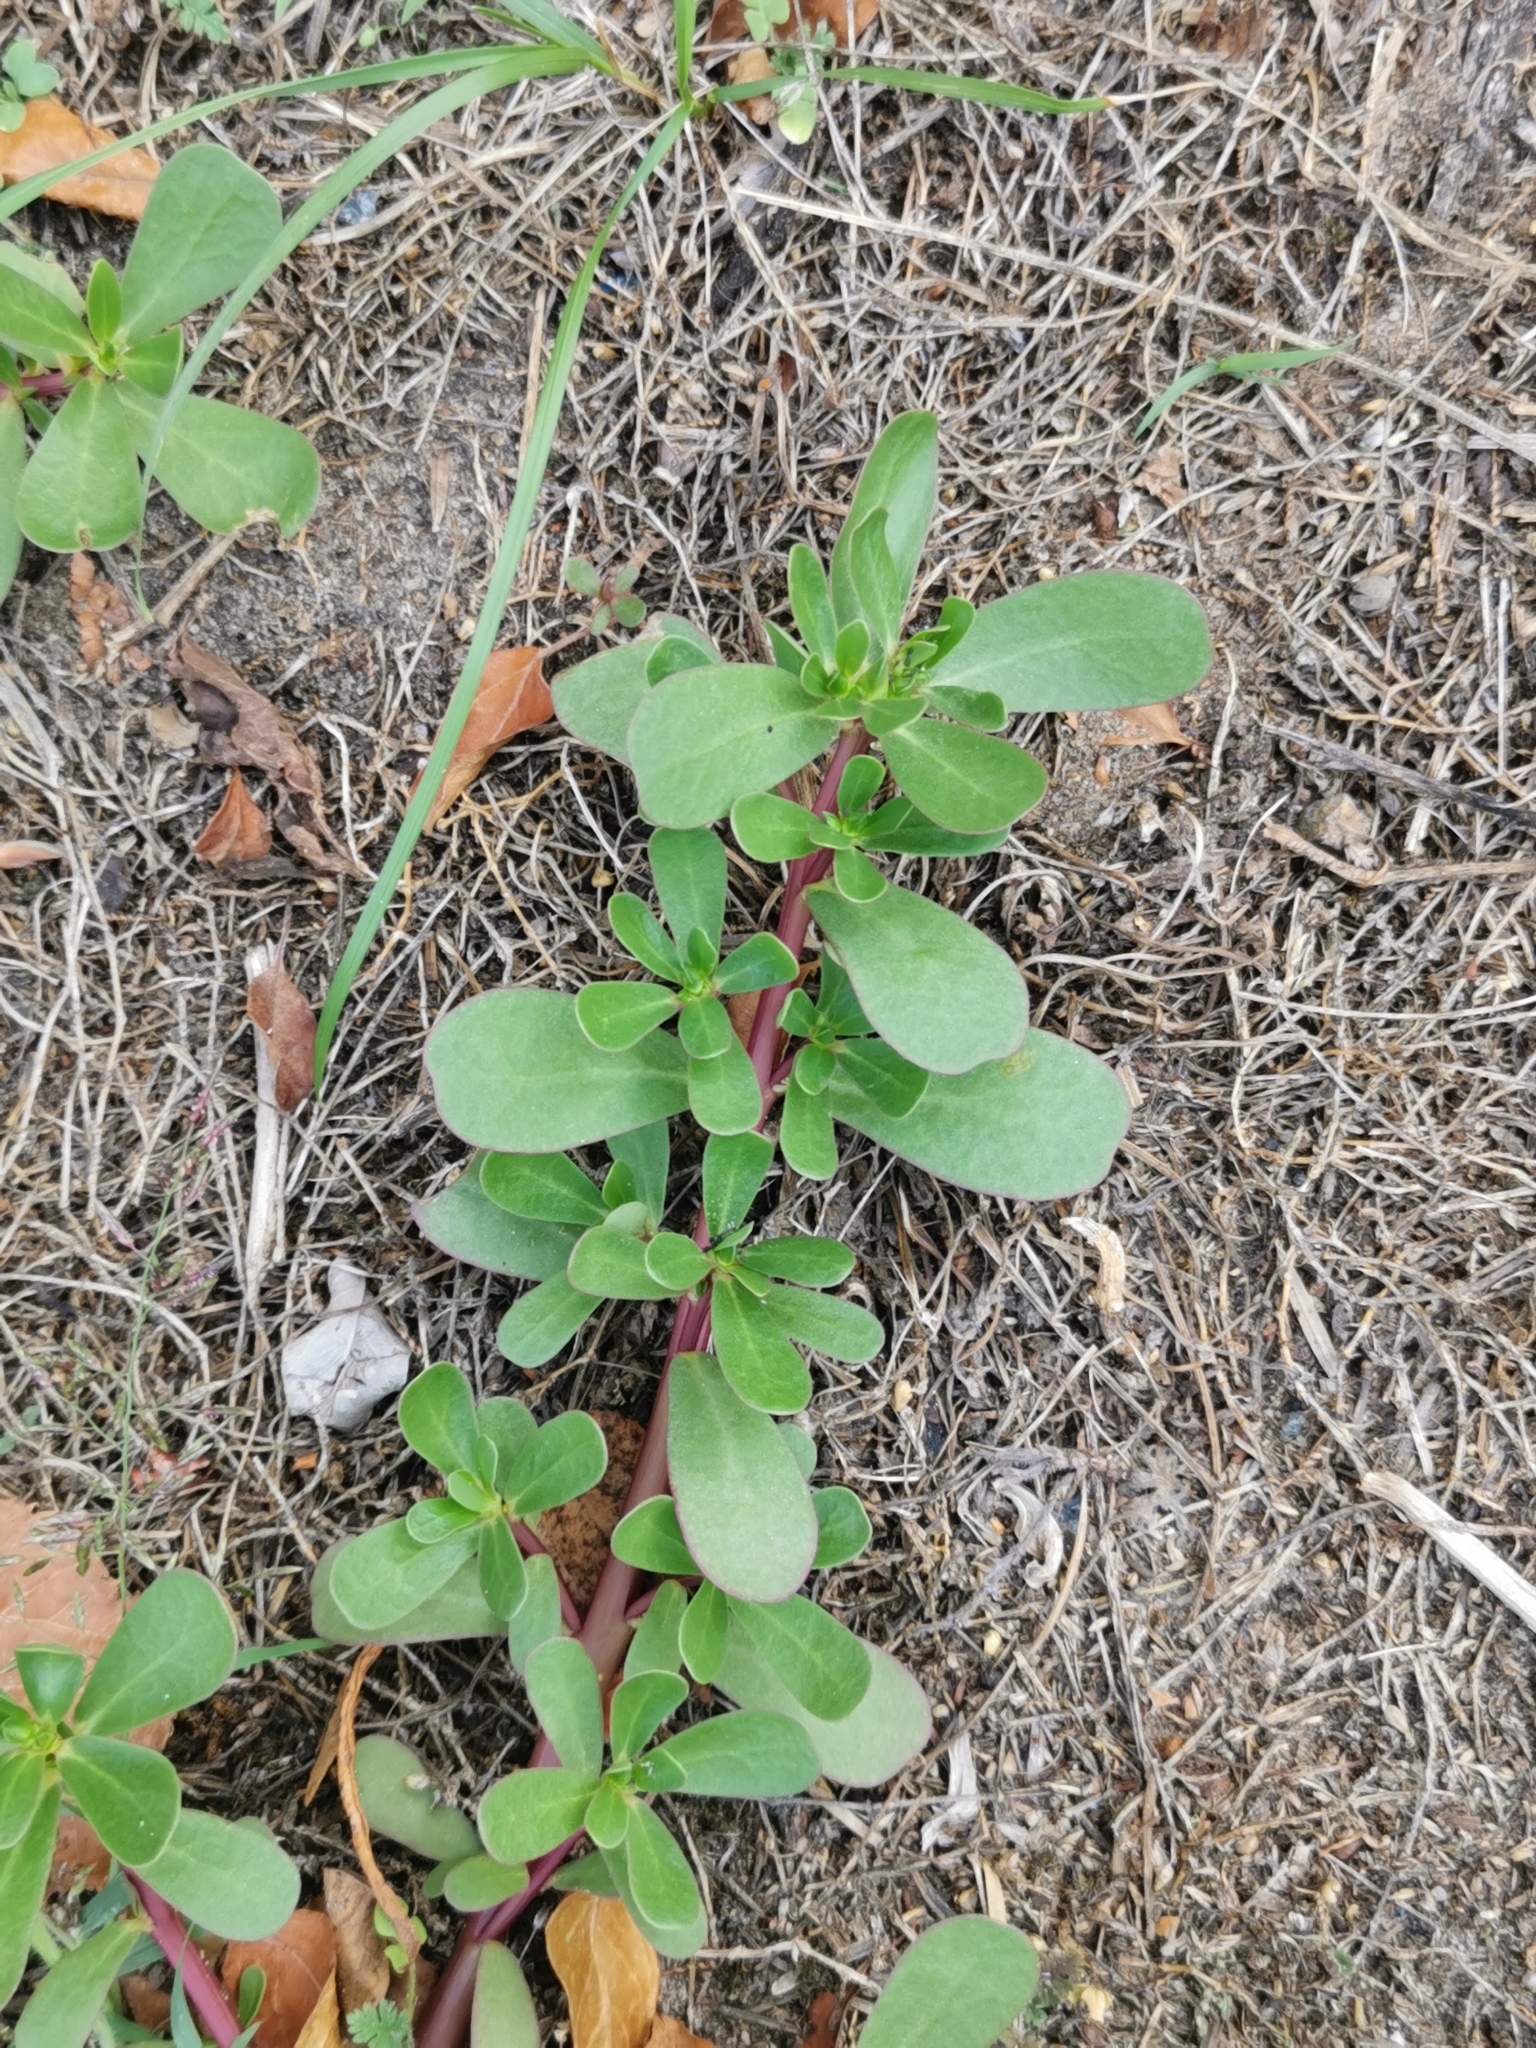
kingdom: Plantae
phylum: Tracheophyta
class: Magnoliopsida
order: Caryophyllales
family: Portulacaceae
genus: Portulaca
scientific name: Portulaca oleracea
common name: Common purslane
